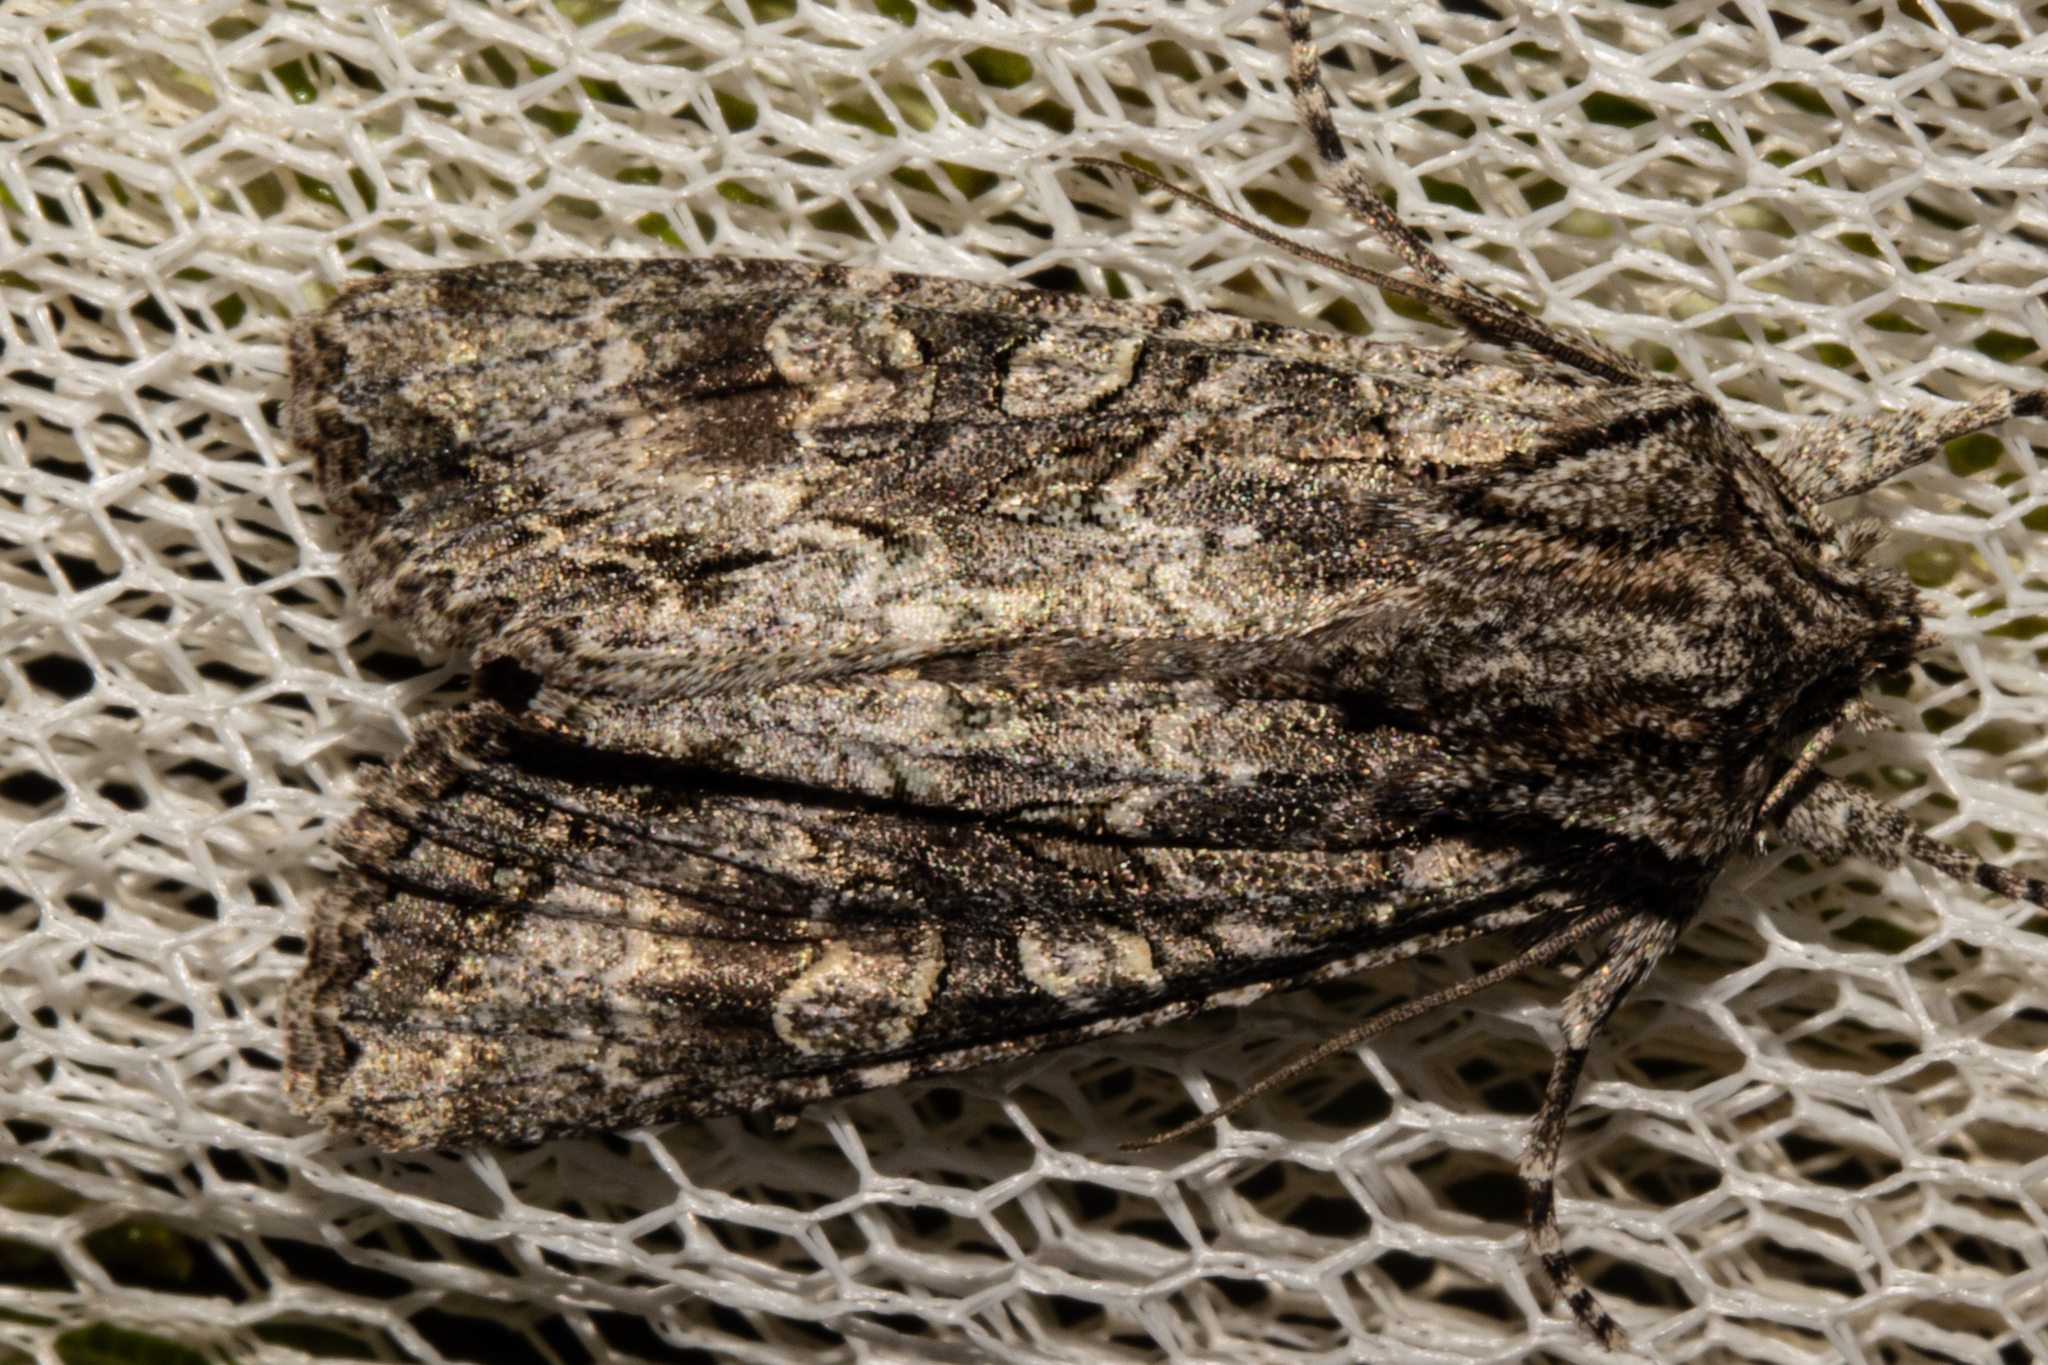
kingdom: Animalia
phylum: Arthropoda
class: Insecta
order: Lepidoptera
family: Noctuidae
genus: Ichneutica
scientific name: Ichneutica mutans
